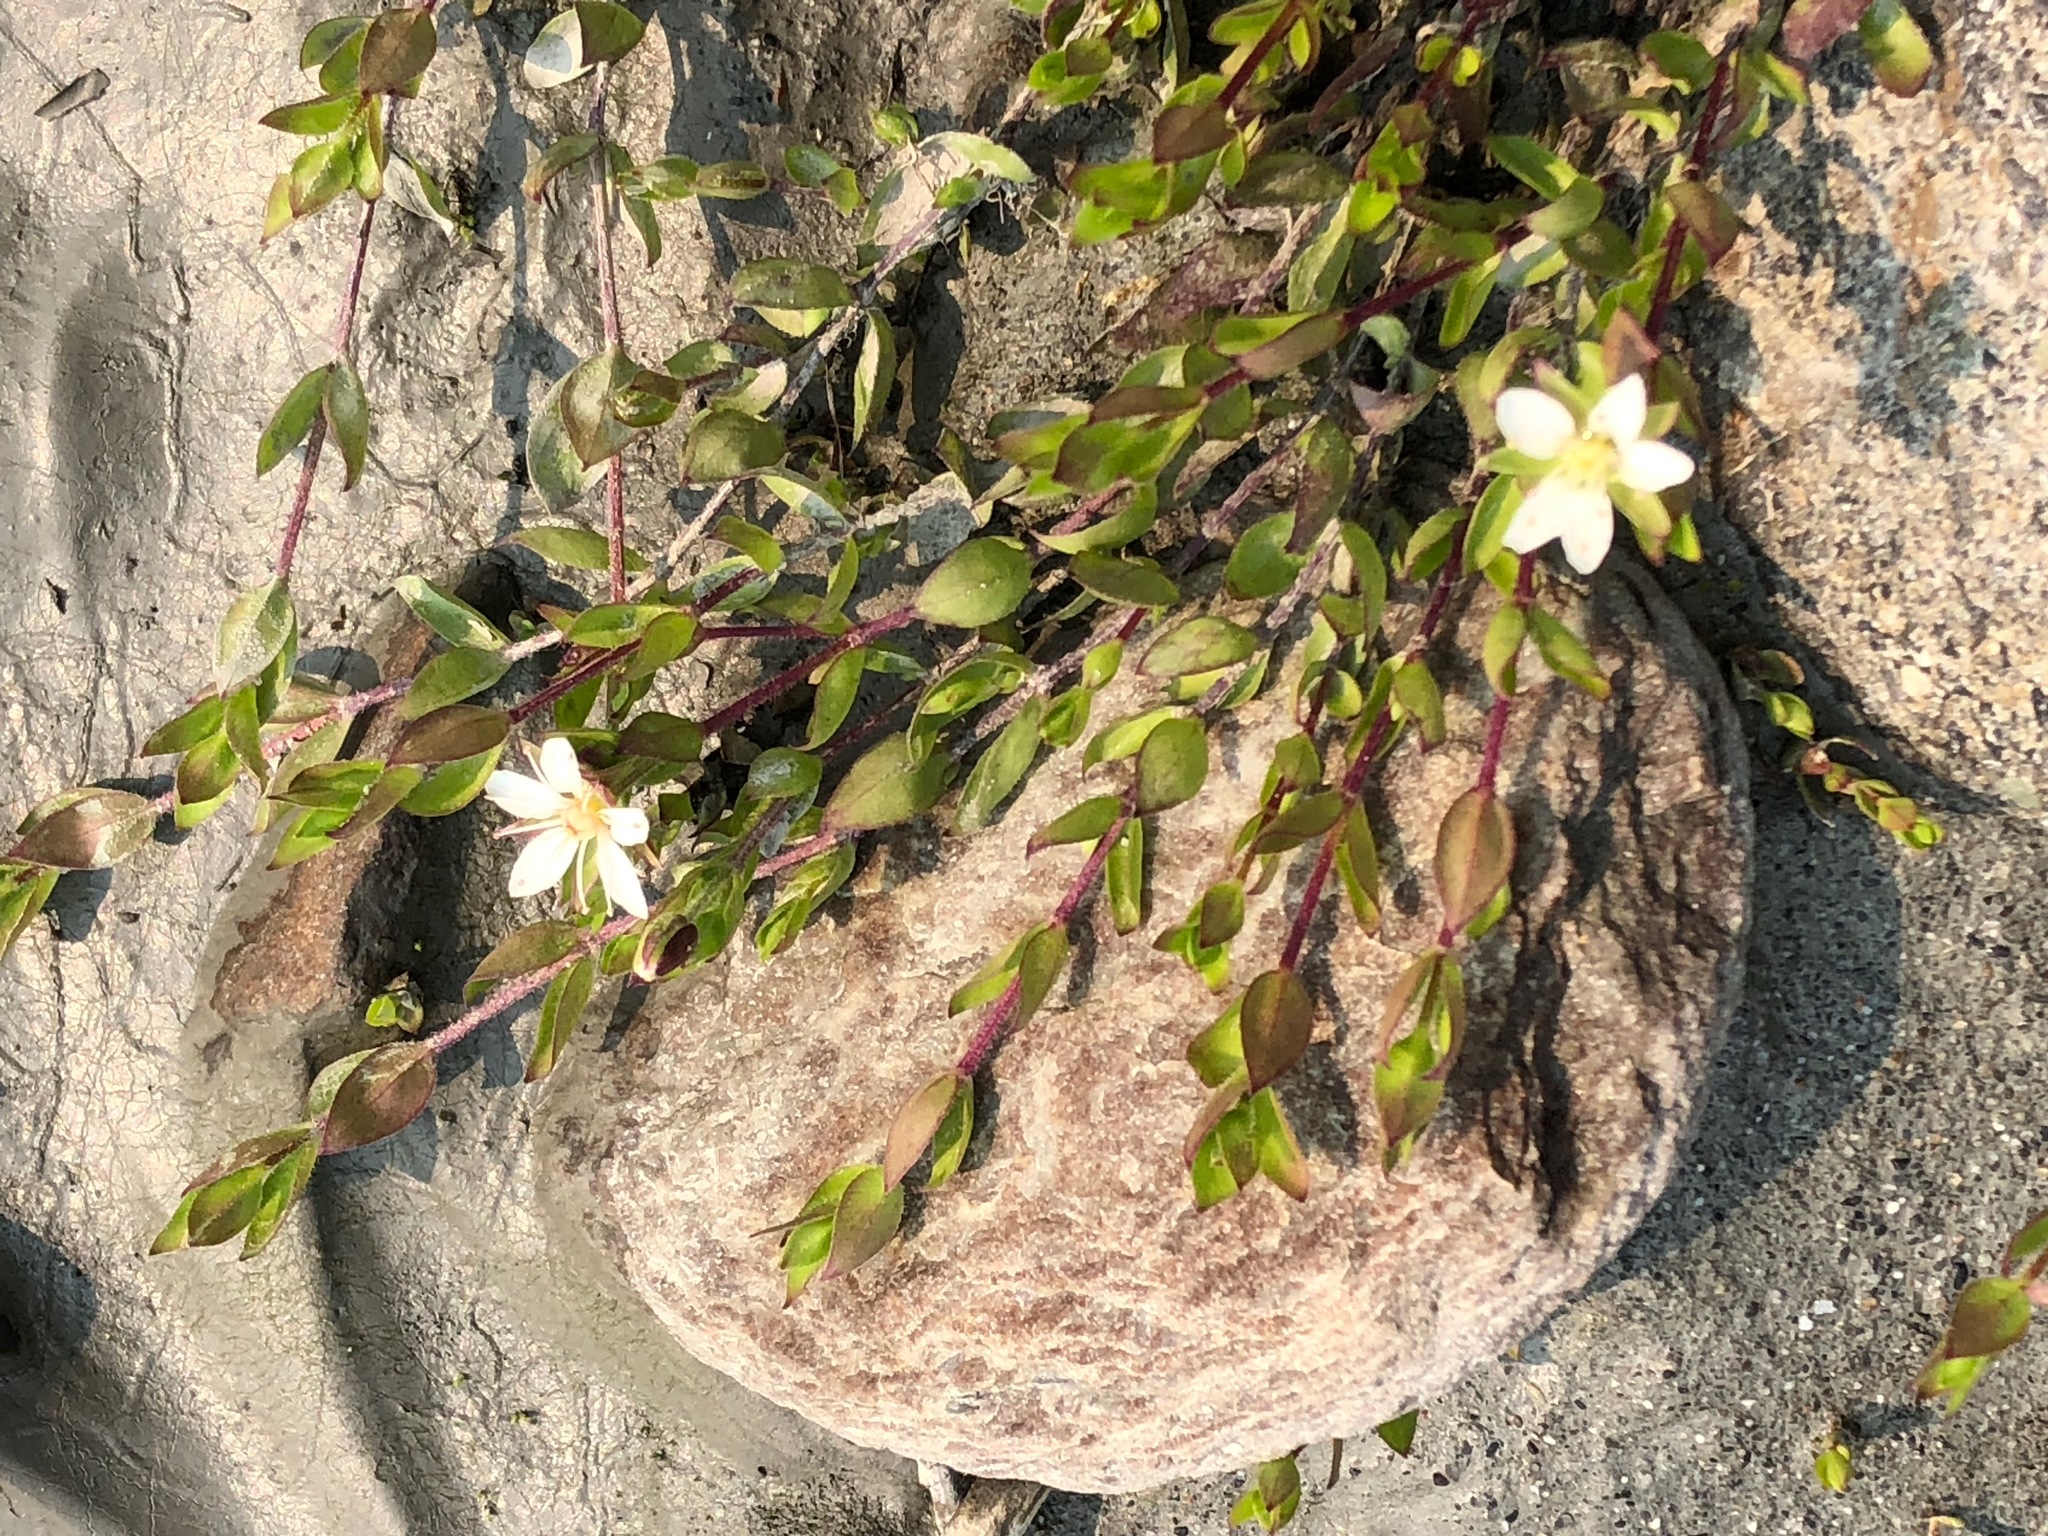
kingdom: Plantae
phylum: Tracheophyta
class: Magnoliopsida
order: Caryophyllales
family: Caryophyllaceae
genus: Wilhelmsia
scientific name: Wilhelmsia physodes
